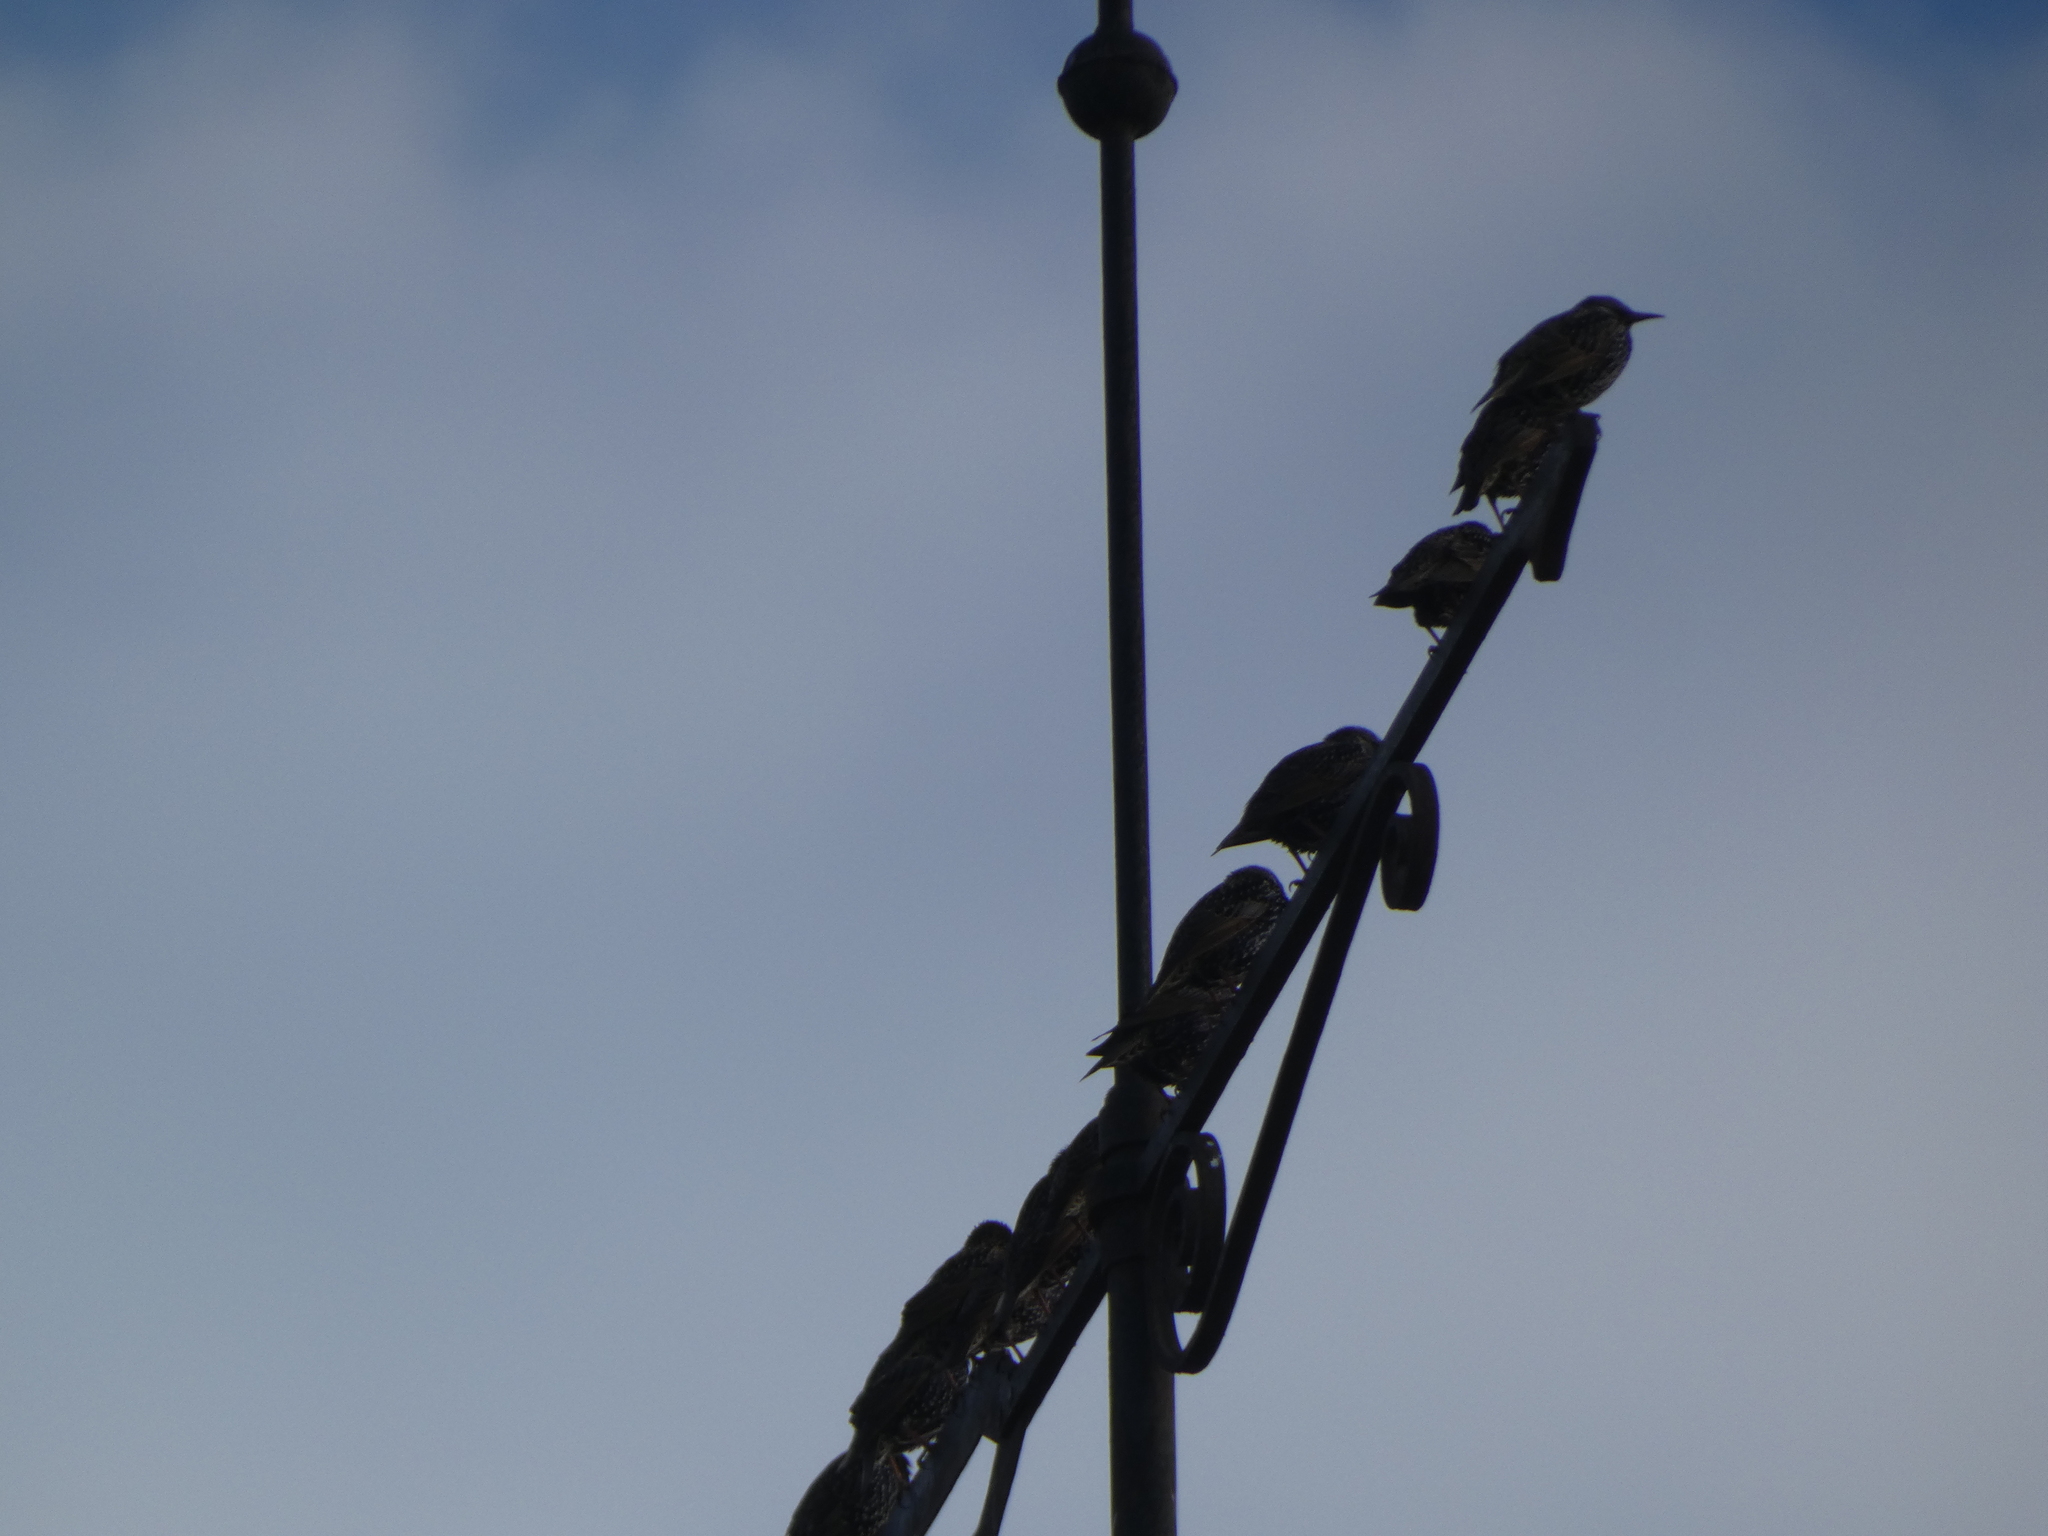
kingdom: Animalia
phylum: Chordata
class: Aves
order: Passeriformes
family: Sturnidae
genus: Sturnus
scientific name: Sturnus vulgaris
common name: Common starling
